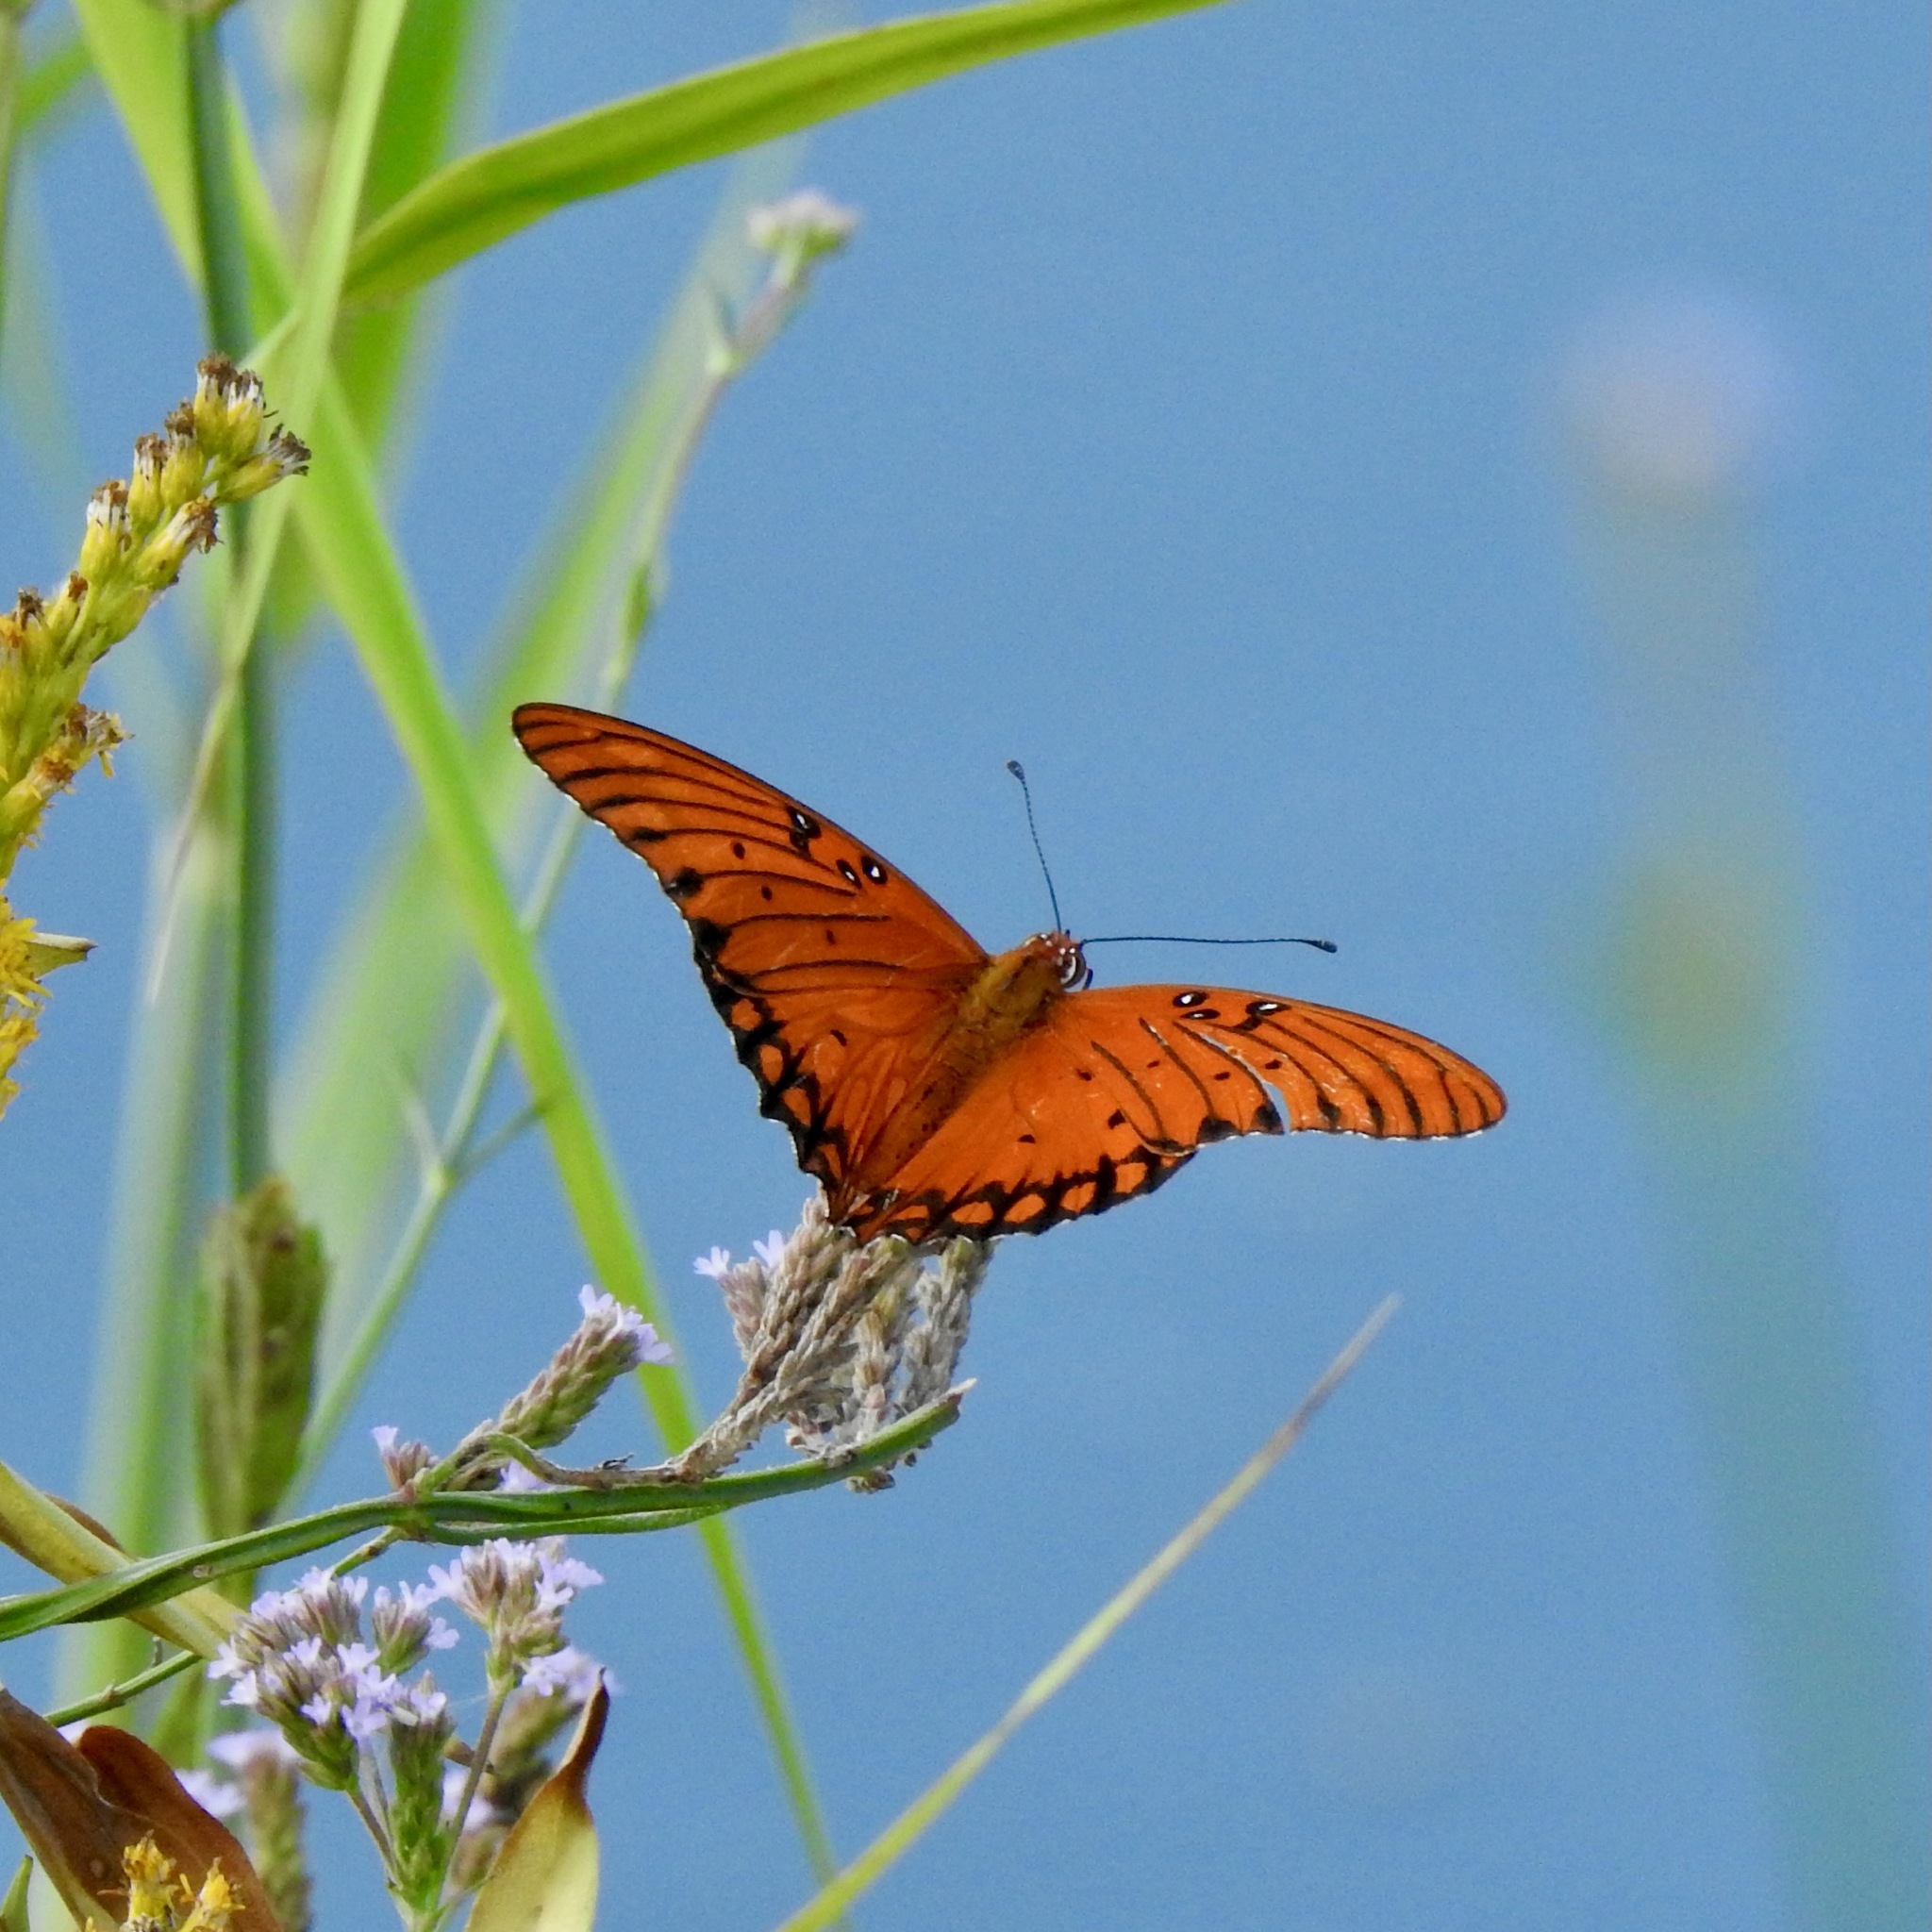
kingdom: Animalia
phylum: Arthropoda
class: Insecta
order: Lepidoptera
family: Nymphalidae
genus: Dione
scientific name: Dione vanillae
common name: Gulf fritillary
